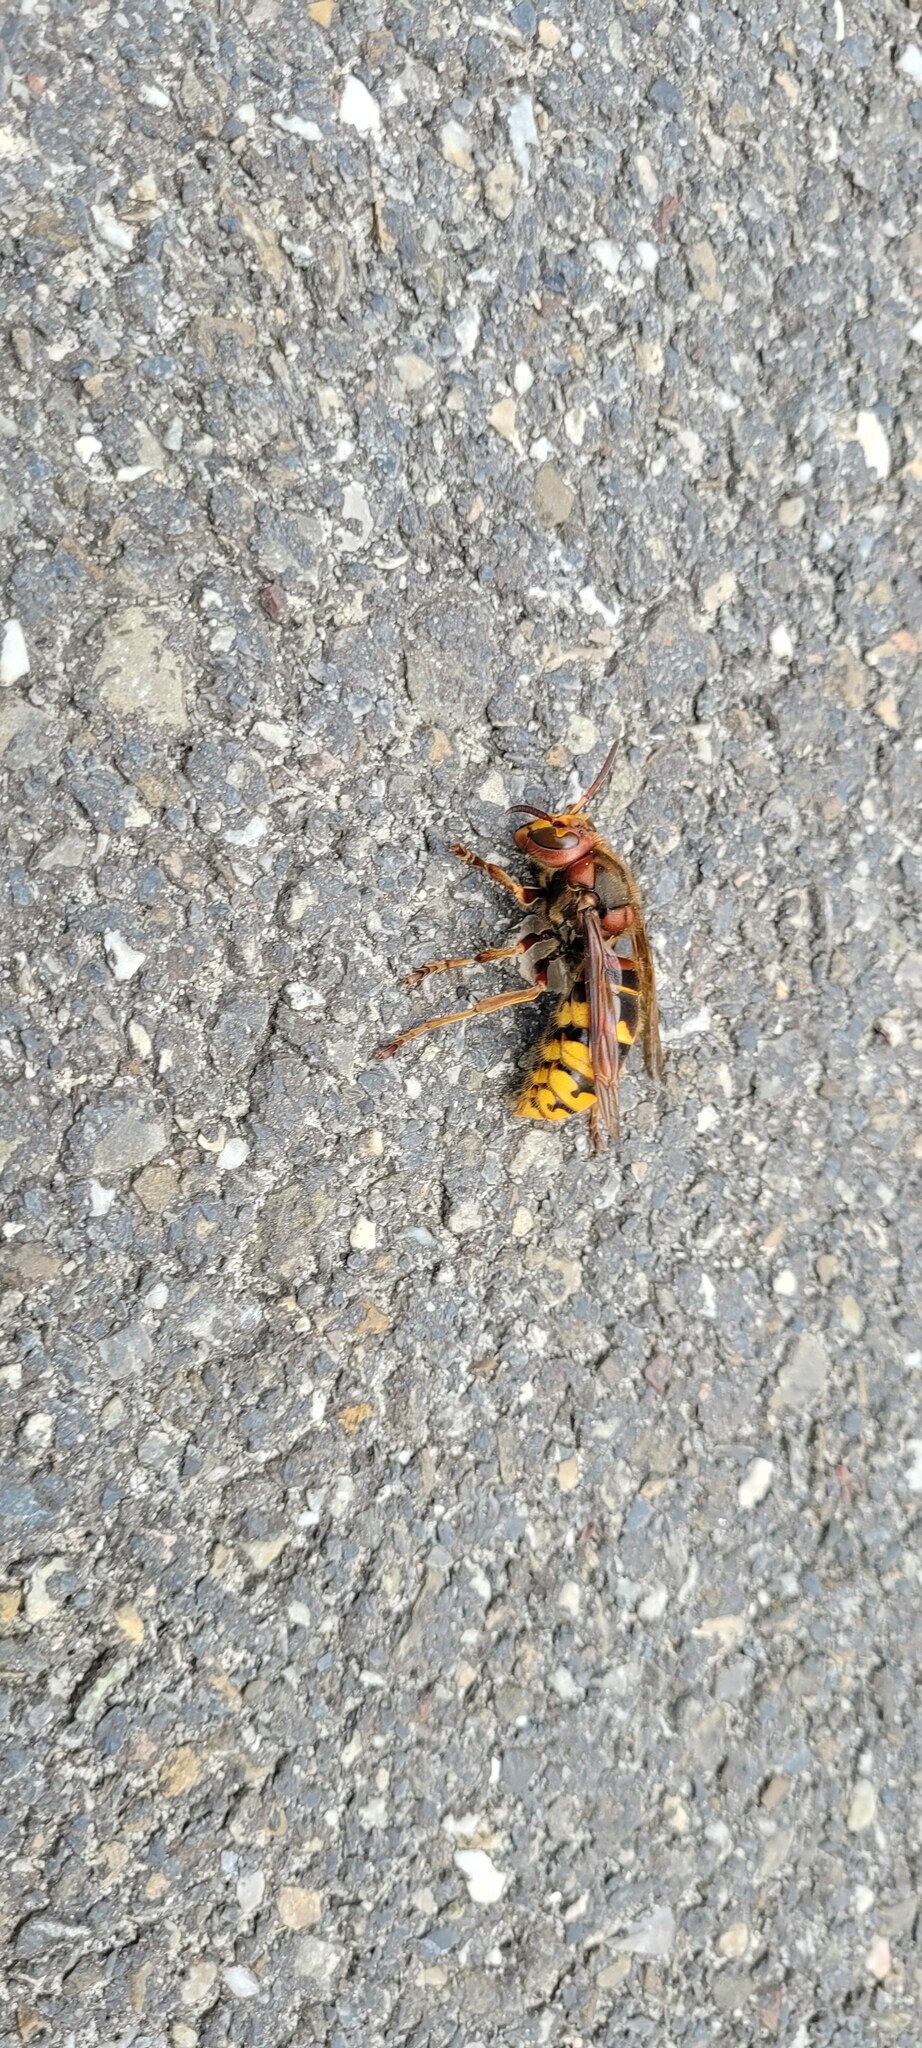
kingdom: Animalia
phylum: Arthropoda
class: Insecta
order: Hymenoptera
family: Vespidae
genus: Vespa
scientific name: Vespa crabro
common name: Hornet
